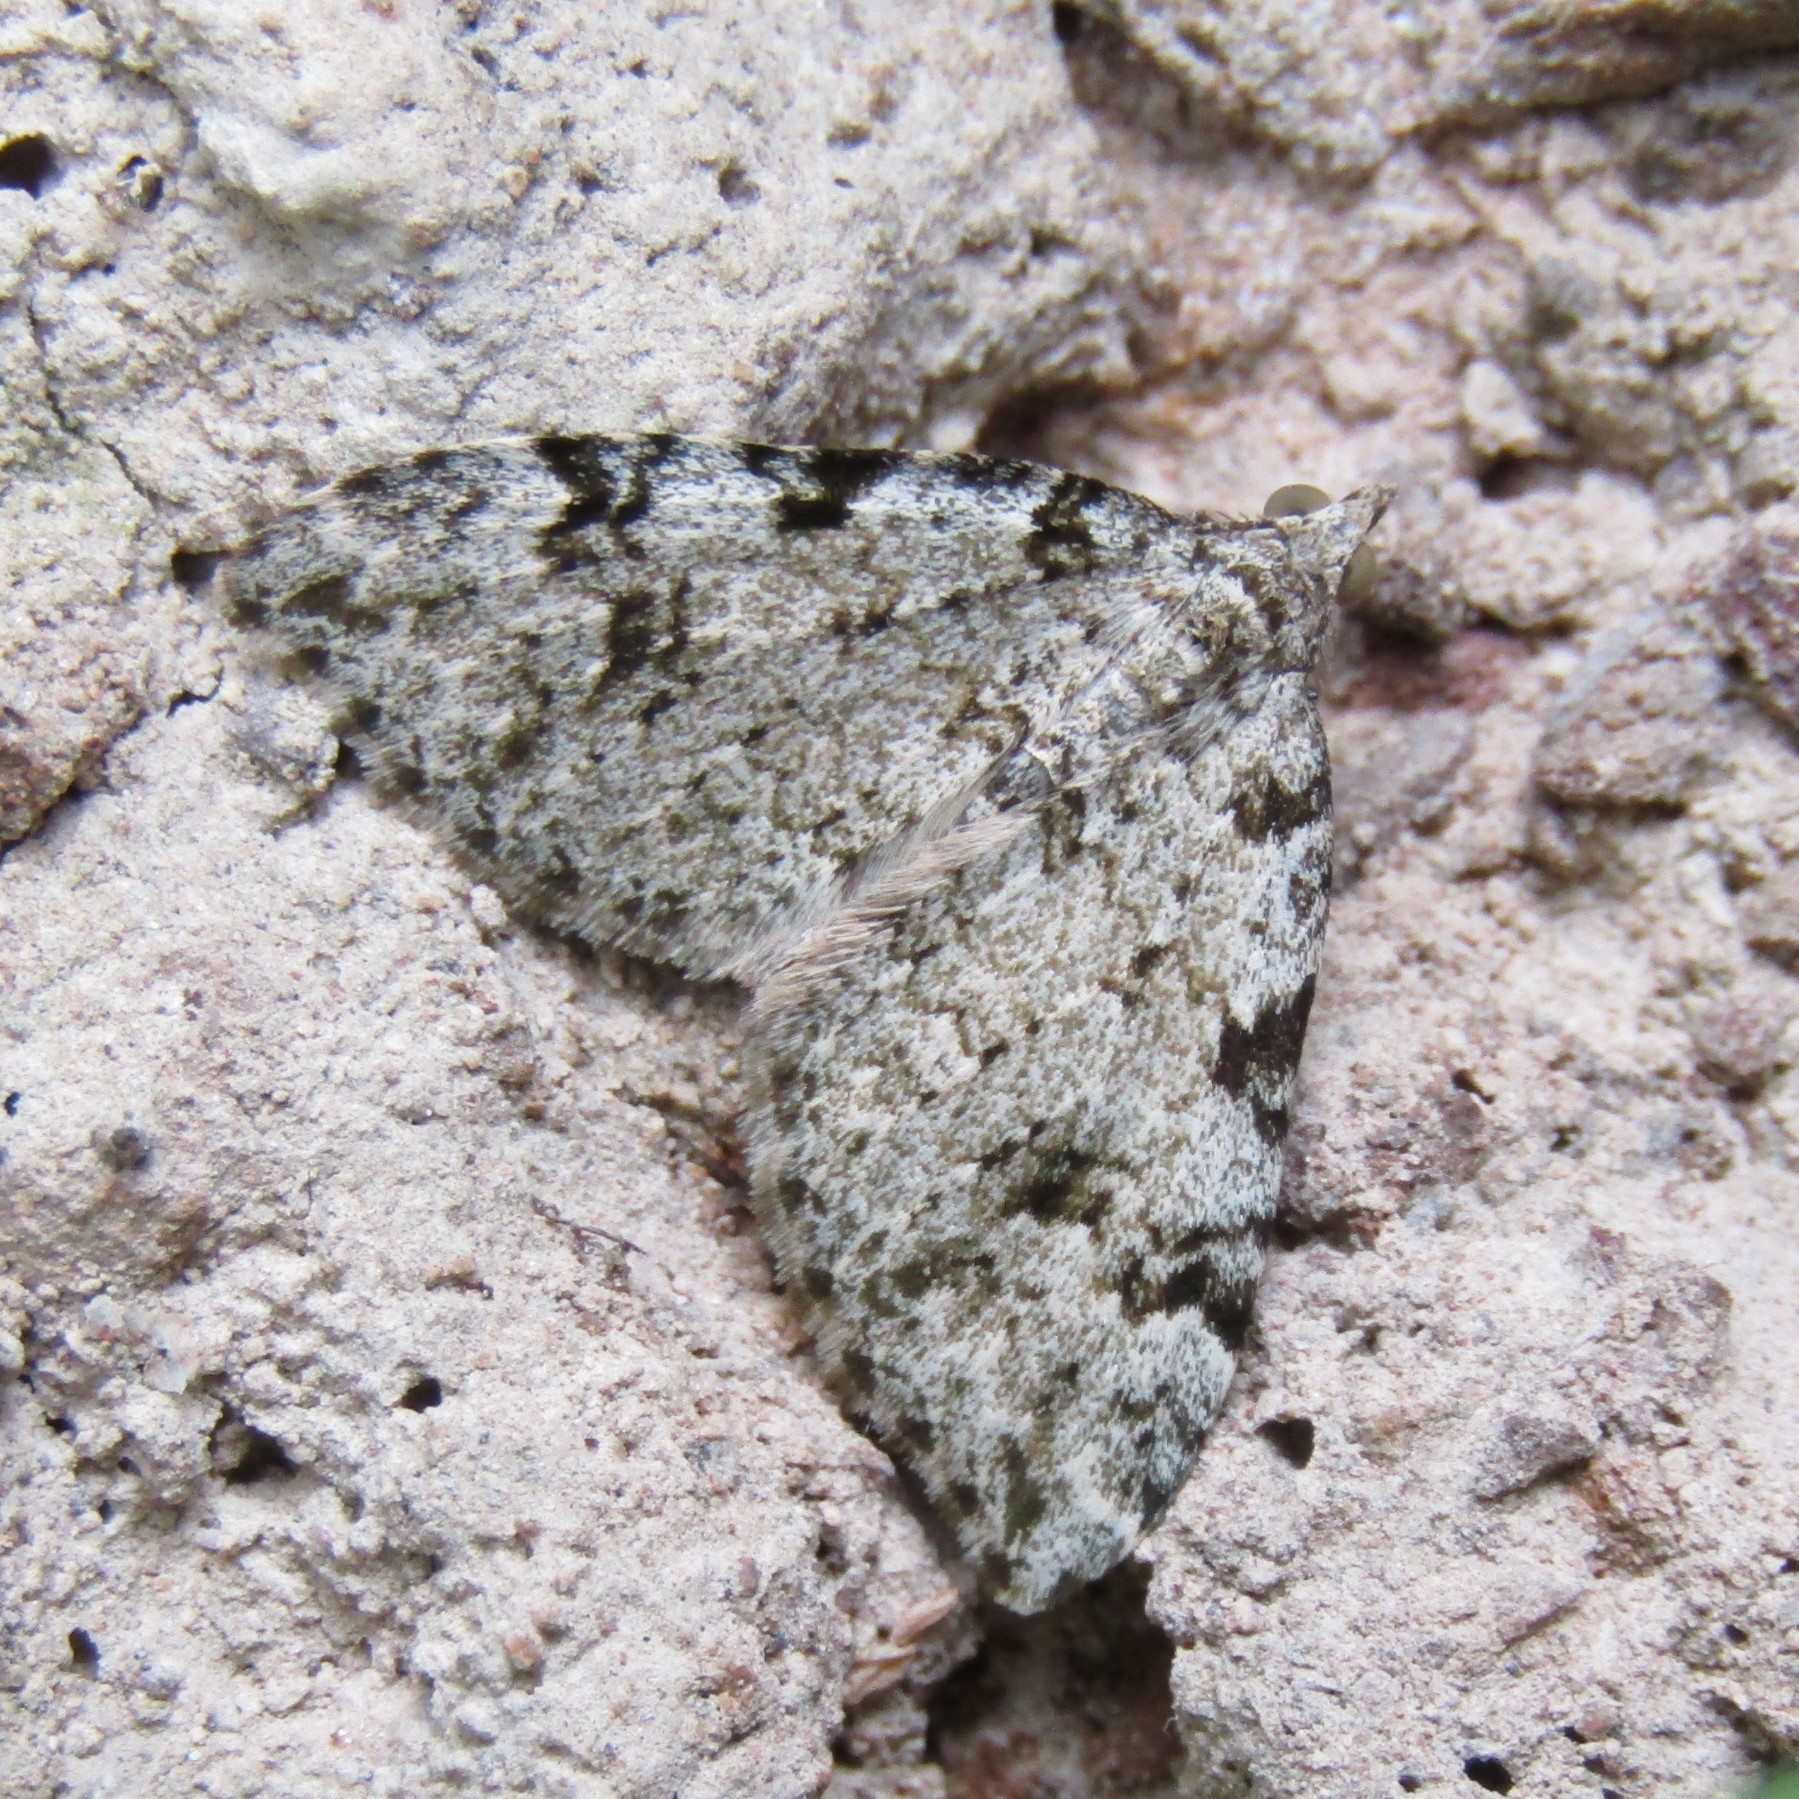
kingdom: Animalia
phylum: Arthropoda
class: Insecta
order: Lepidoptera
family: Geometridae
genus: Helastia
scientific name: Helastia cinerearia
